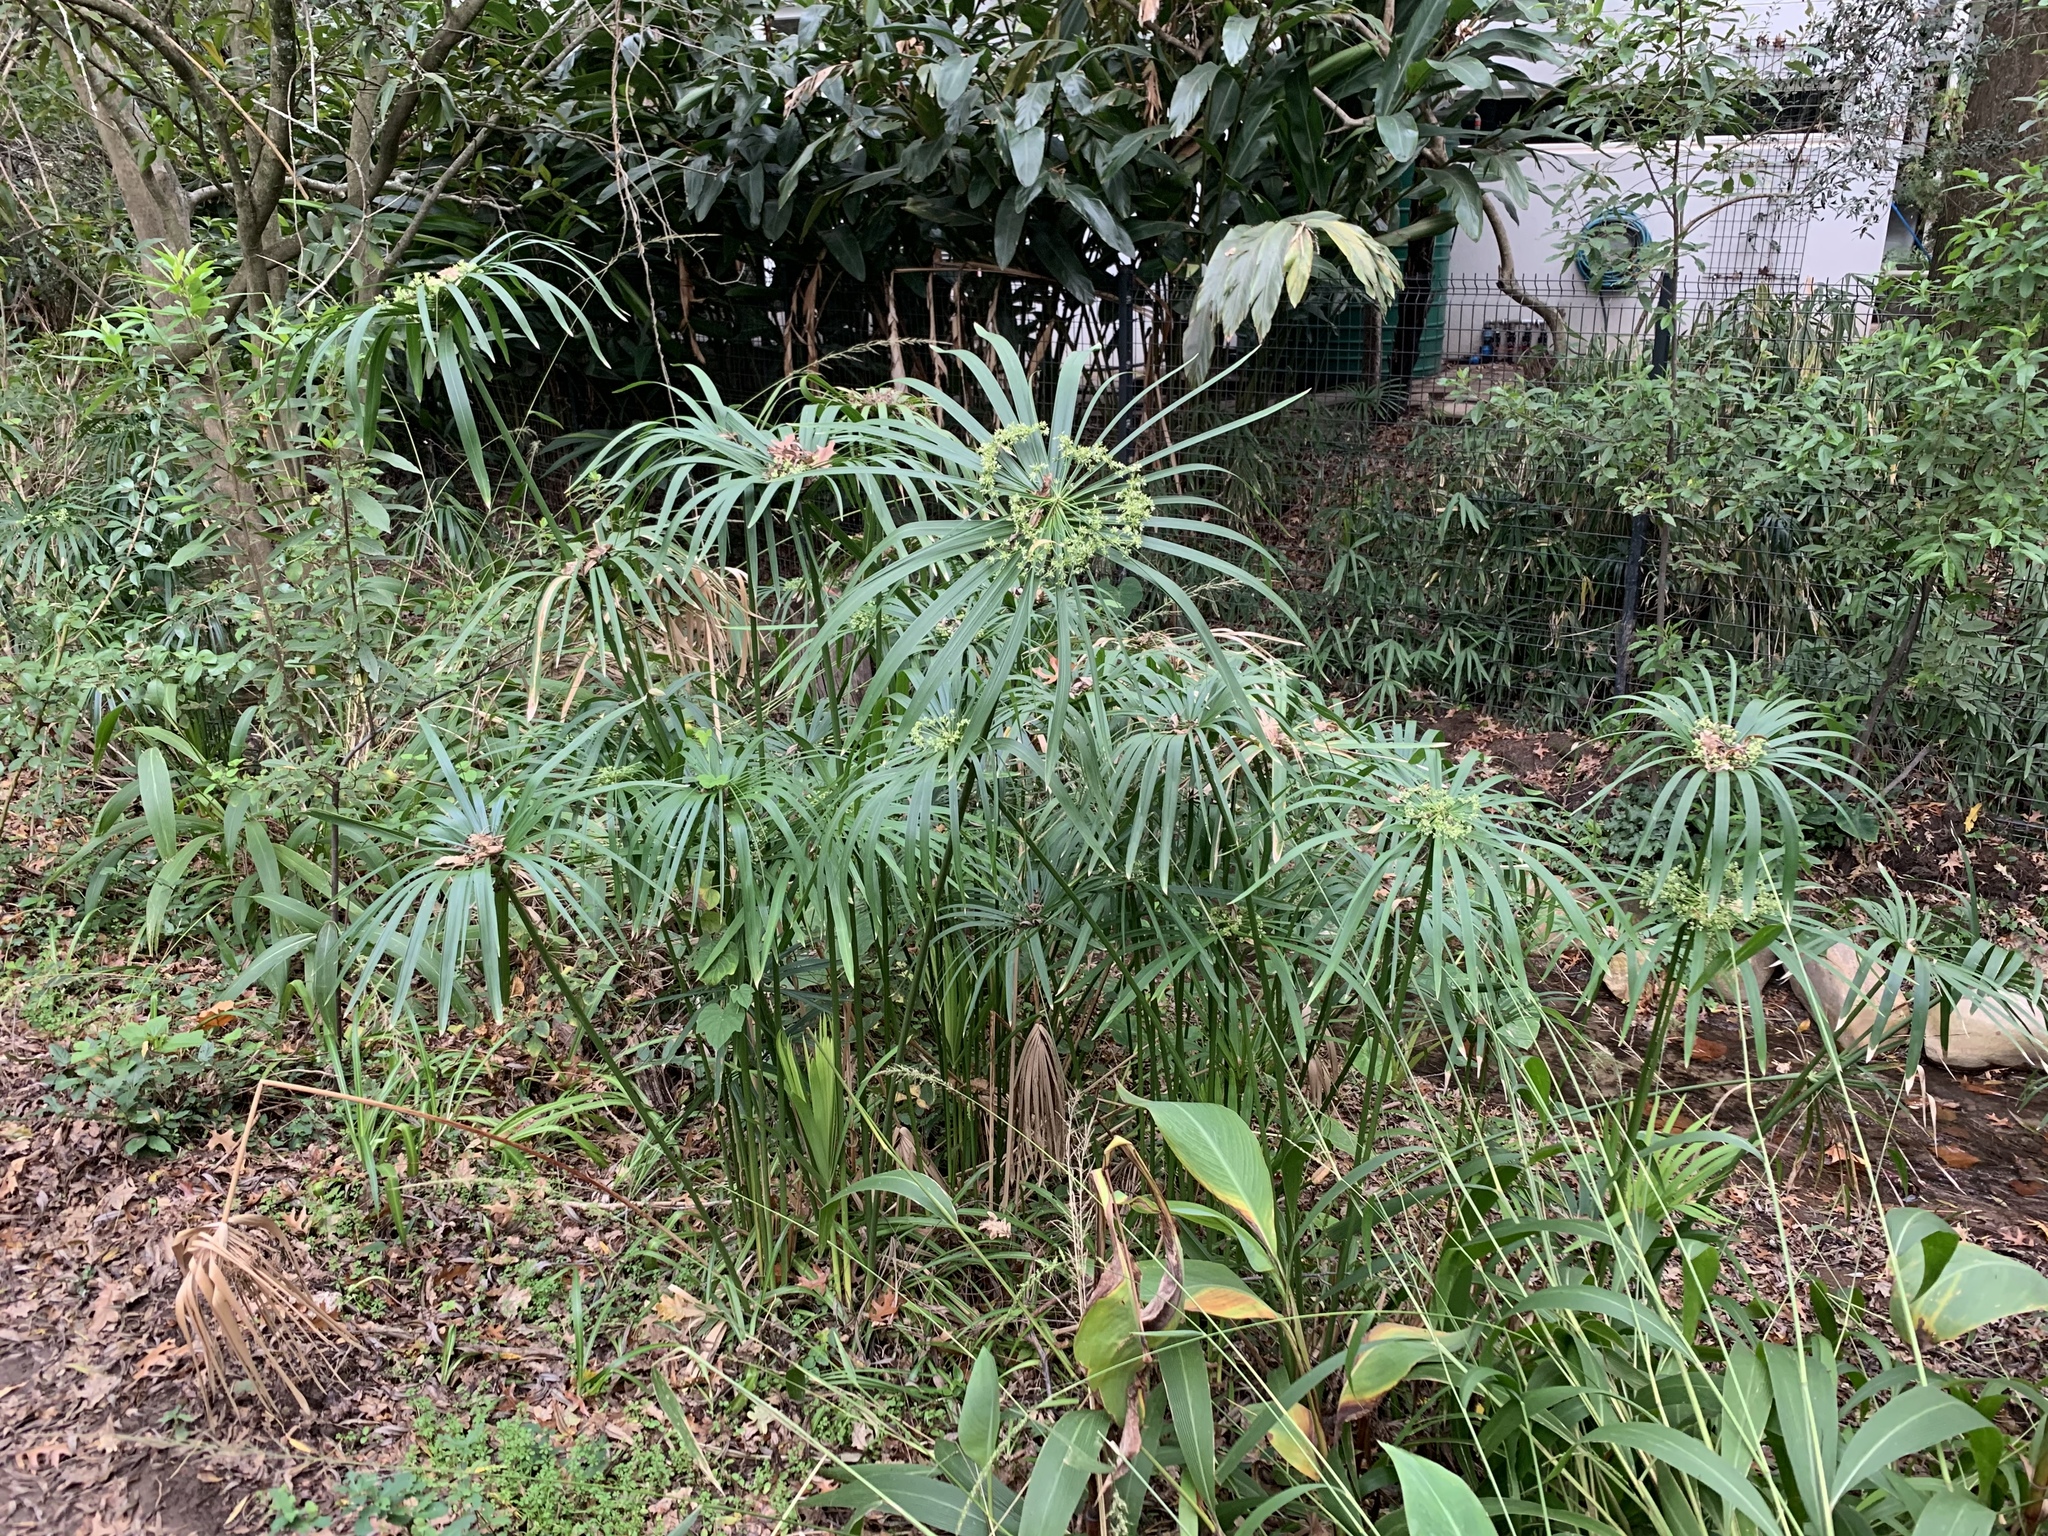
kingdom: Plantae
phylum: Tracheophyta
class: Liliopsida
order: Poales
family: Cyperaceae
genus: Cyperus
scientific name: Cyperus textilis
